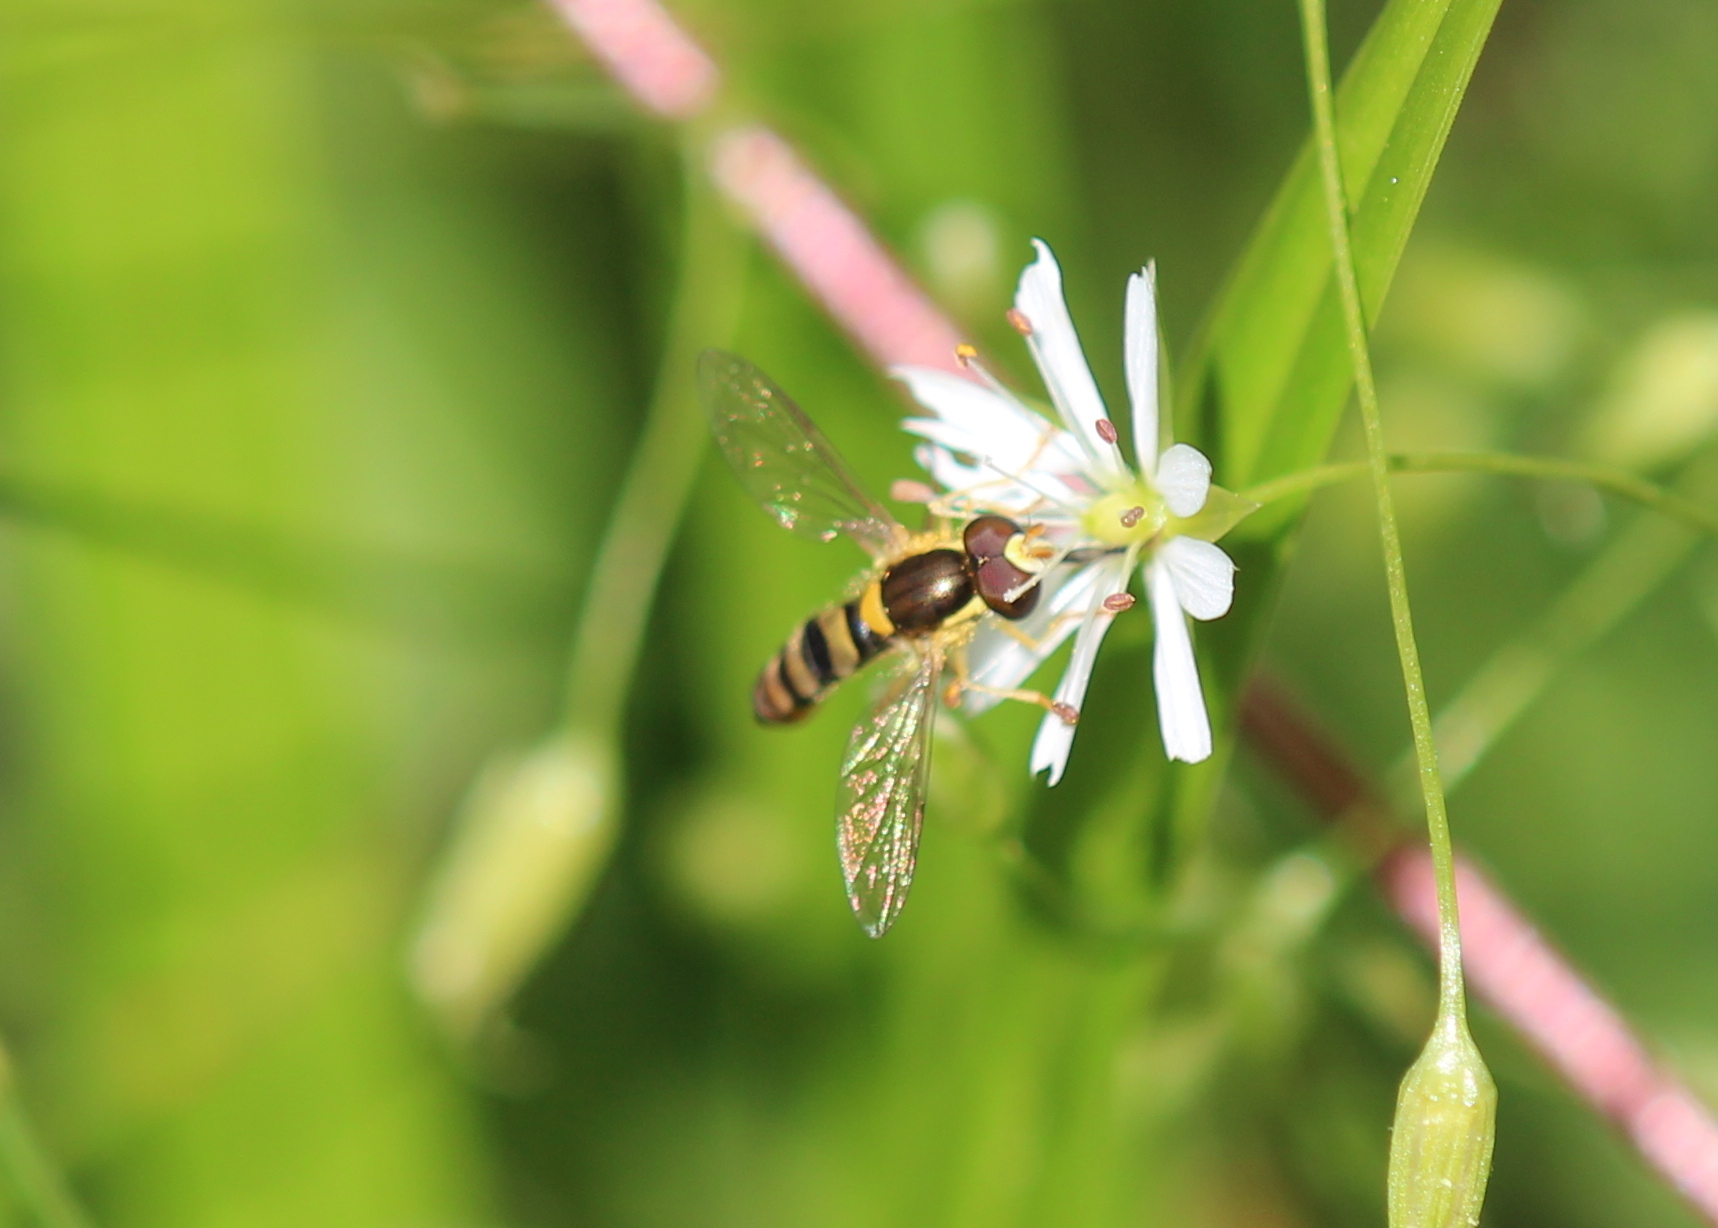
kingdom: Animalia
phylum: Arthropoda
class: Insecta
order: Diptera
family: Syrphidae
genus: Sphaerophoria
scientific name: Sphaerophoria contigua
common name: Tufted globetail
